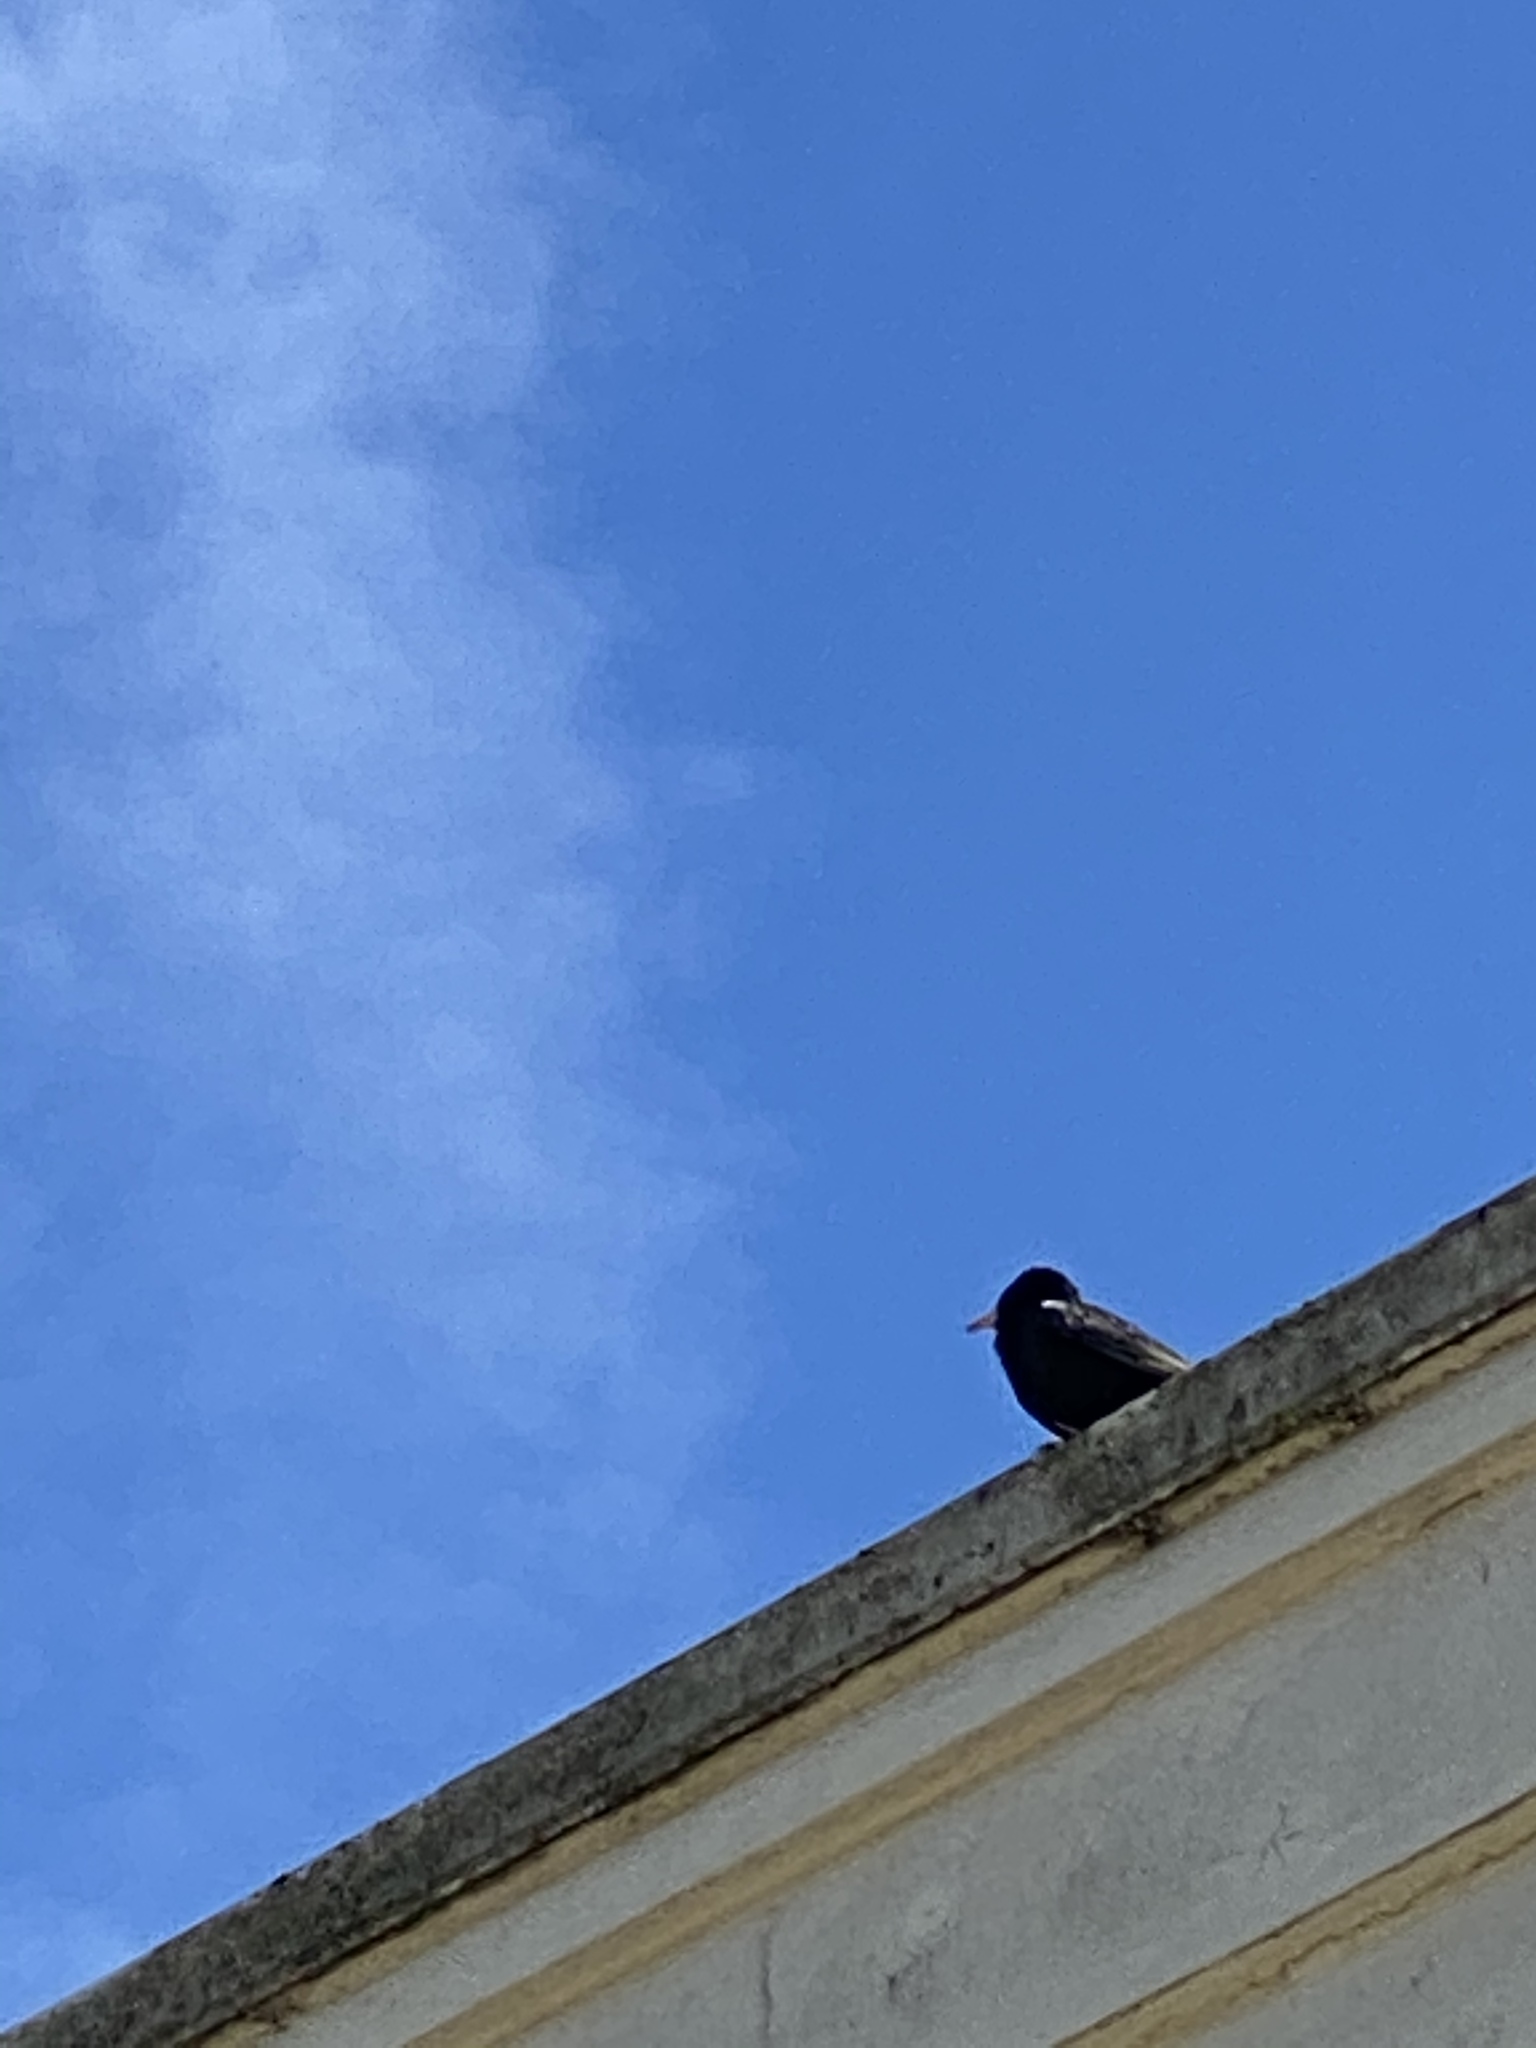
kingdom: Animalia
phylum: Chordata
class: Aves
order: Passeriformes
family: Sturnidae
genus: Sturnus
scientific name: Sturnus vulgaris
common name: Common starling
